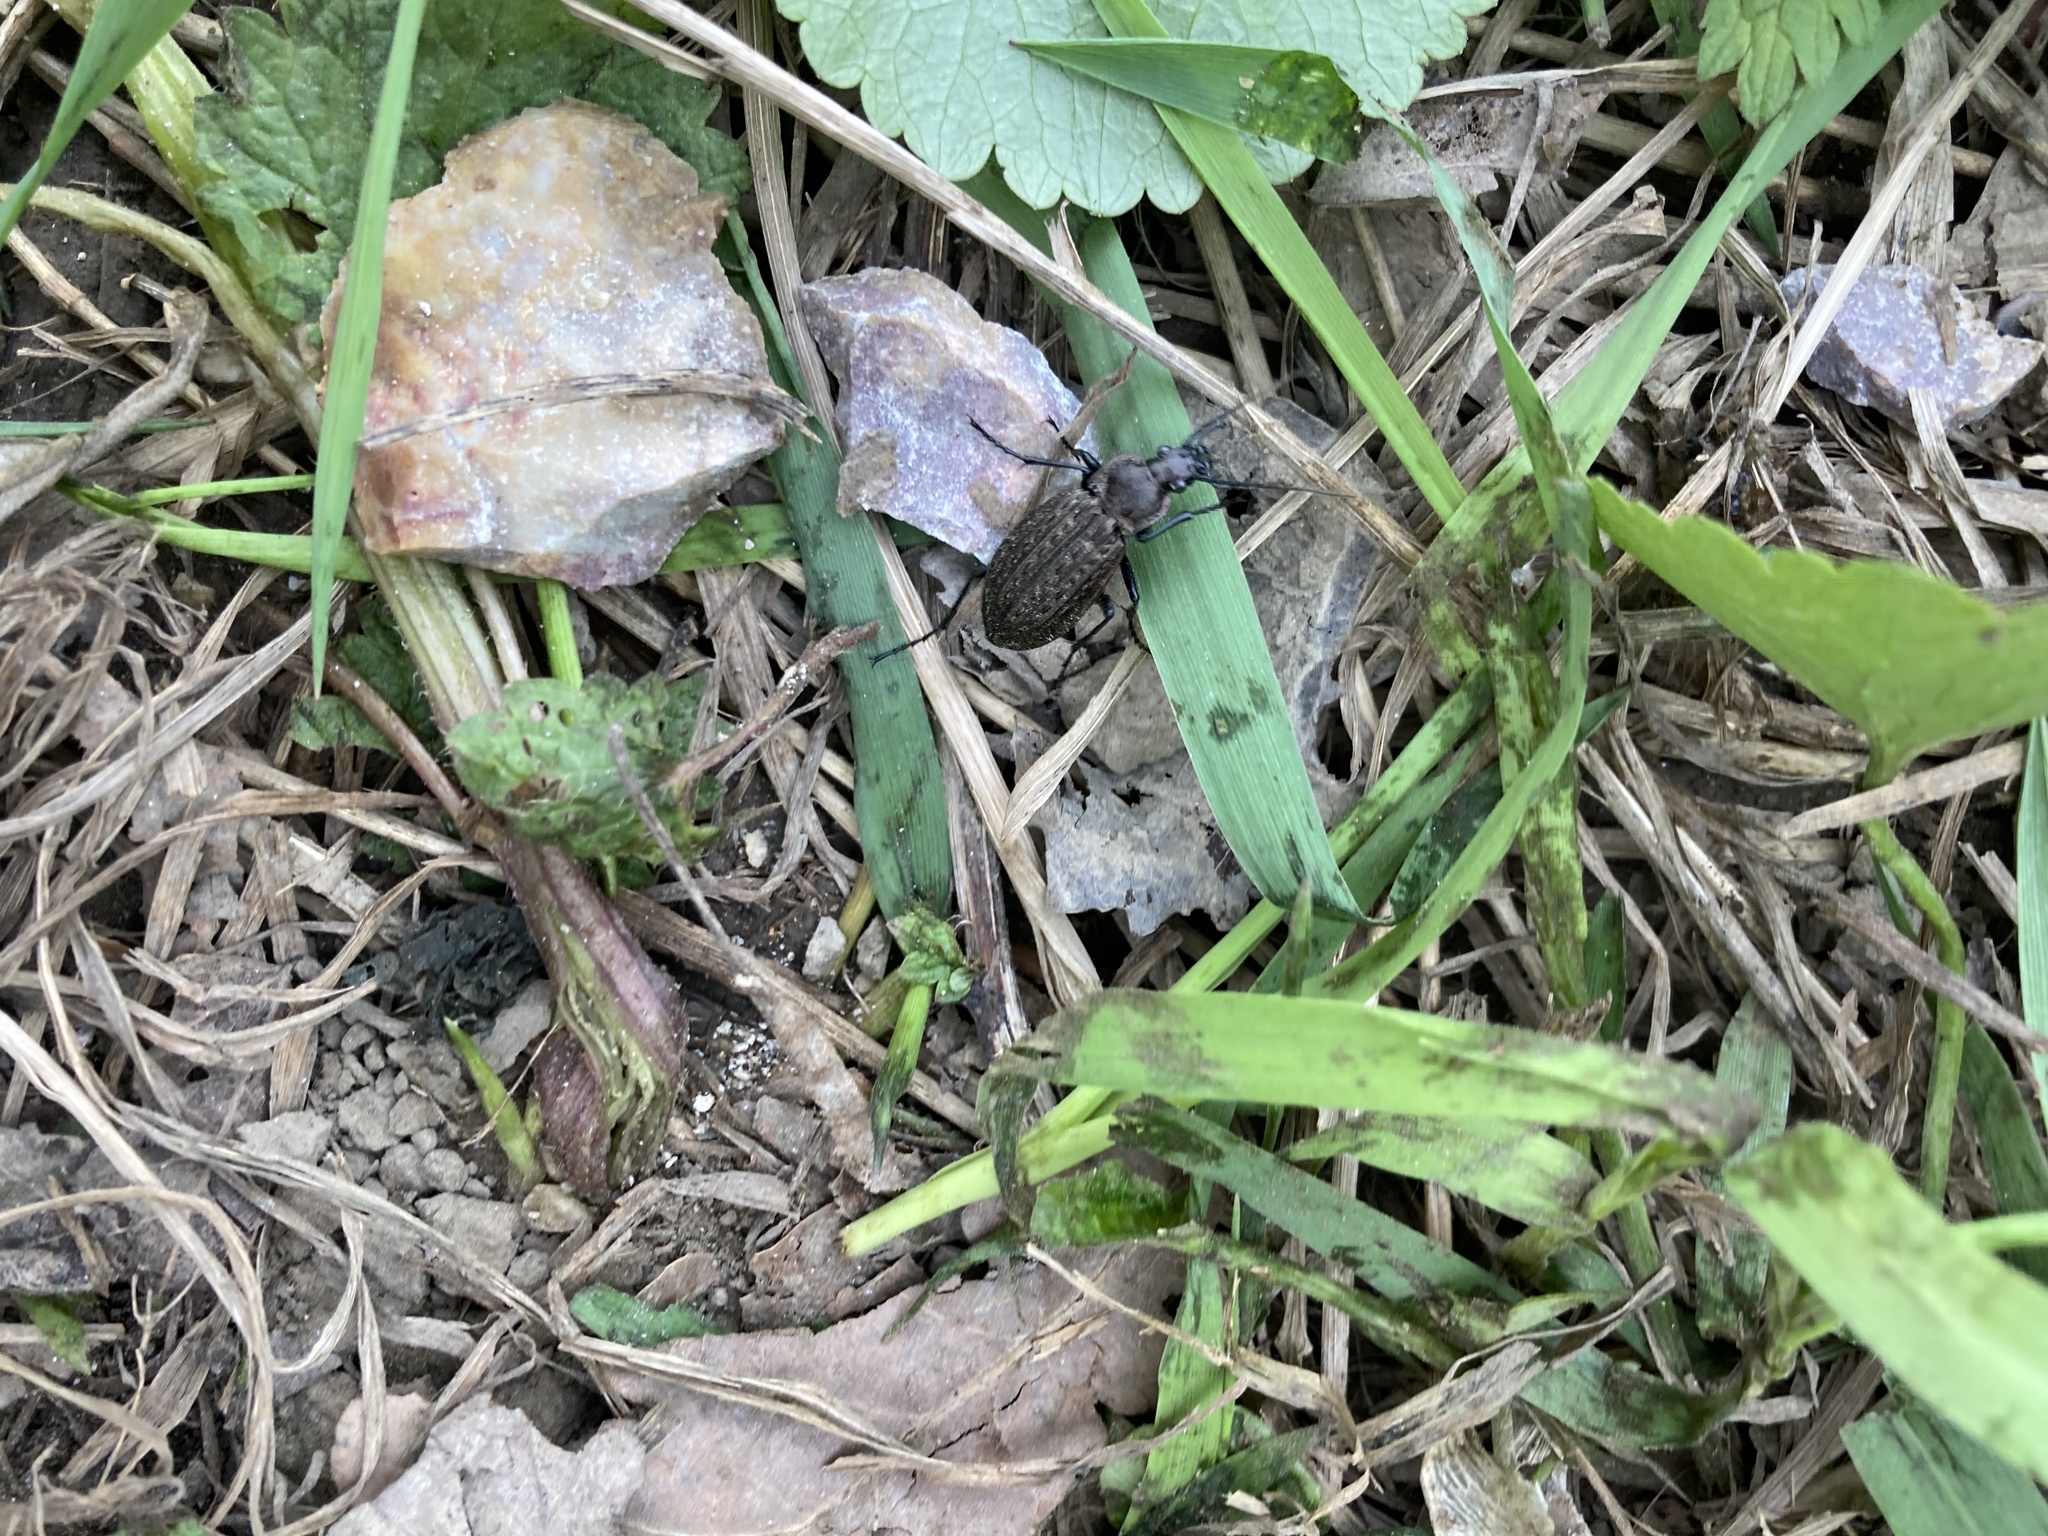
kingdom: Animalia
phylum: Arthropoda
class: Insecta
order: Coleoptera
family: Carabidae
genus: Carabus
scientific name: Carabus granulatus
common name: Granulate ground beetle
